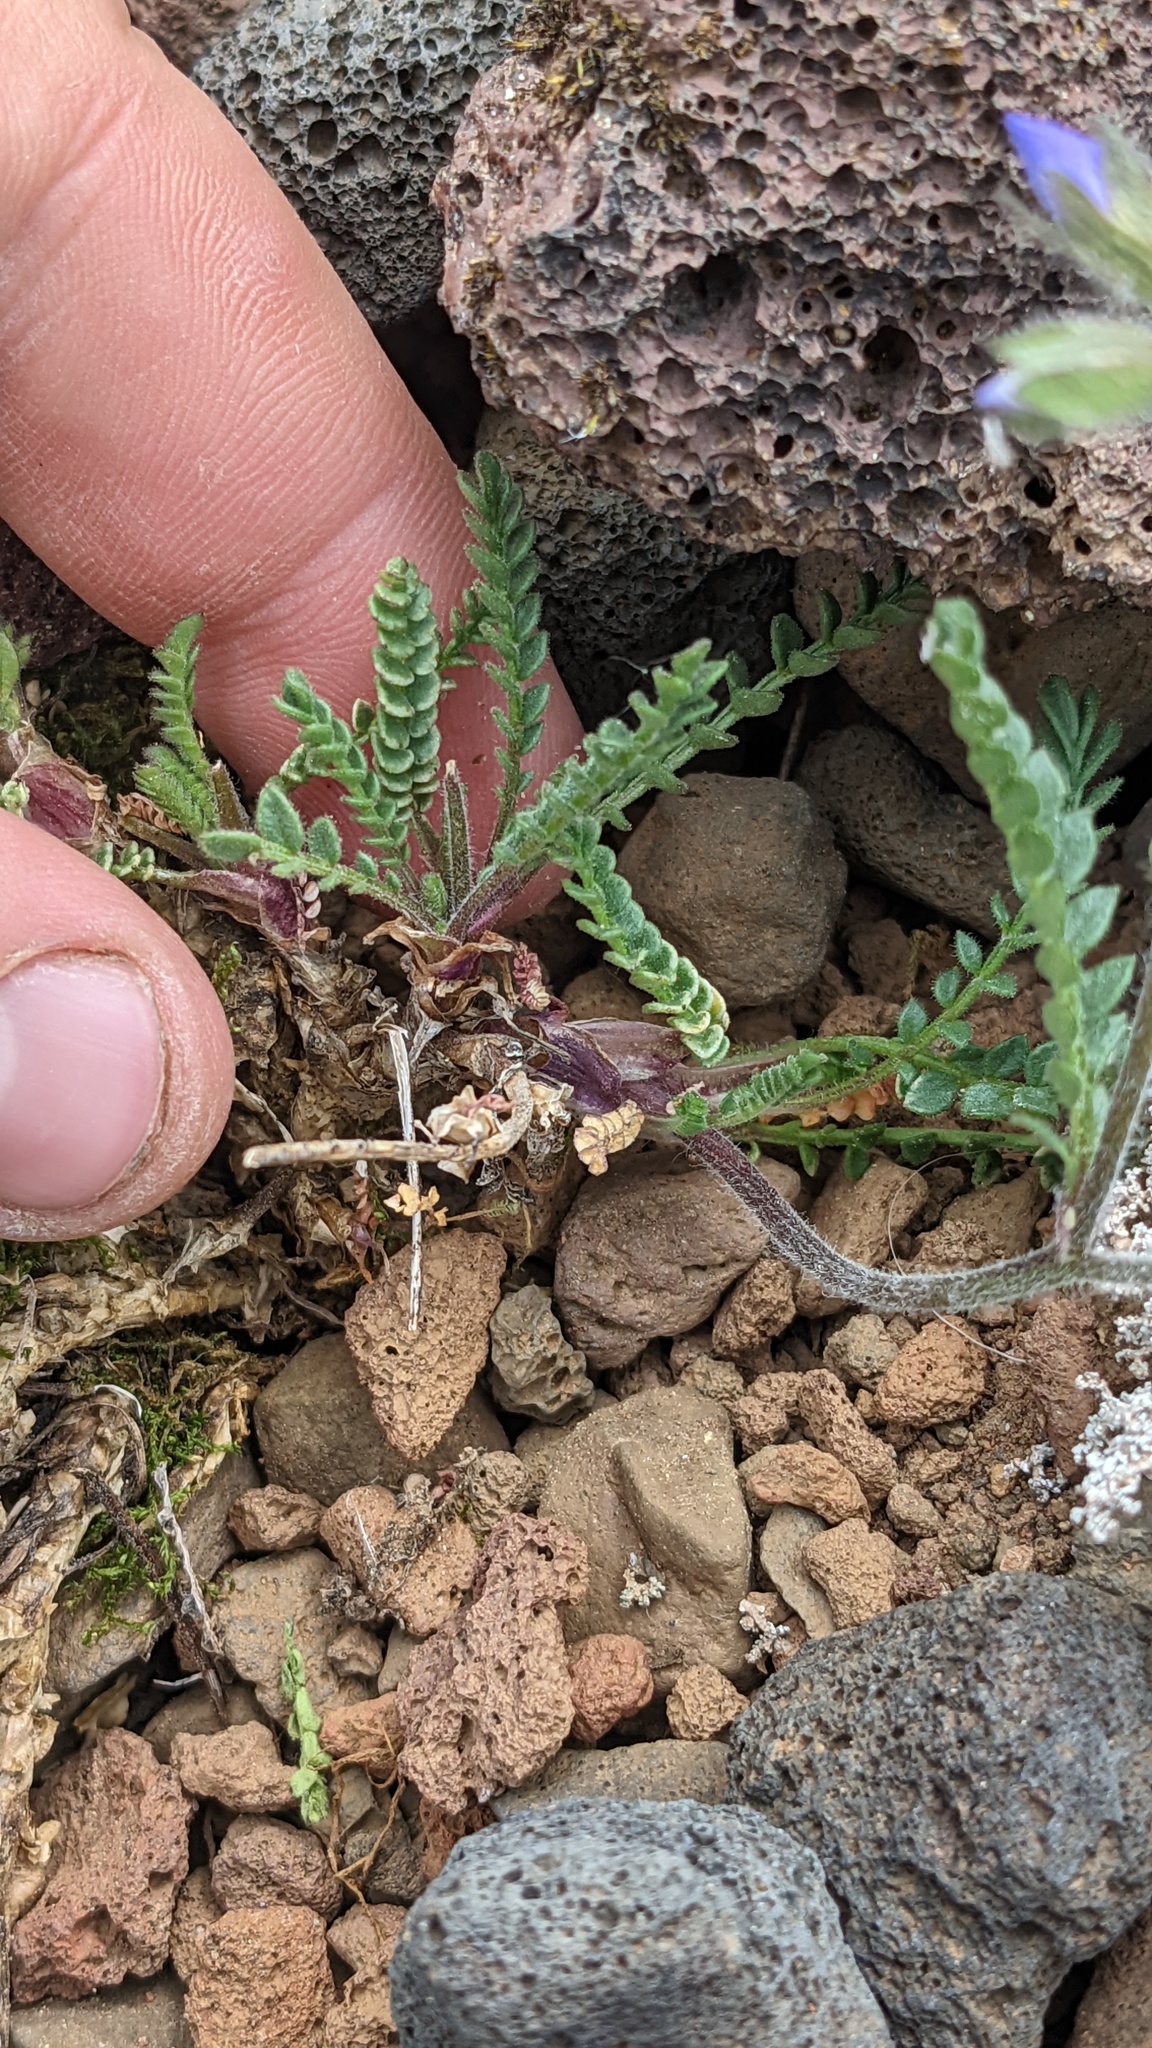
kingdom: Plantae
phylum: Tracheophyta
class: Magnoliopsida
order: Ericales
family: Polemoniaceae
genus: Polemonium
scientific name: Polemonium pulcherrimum
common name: Short jacob's-ladder
